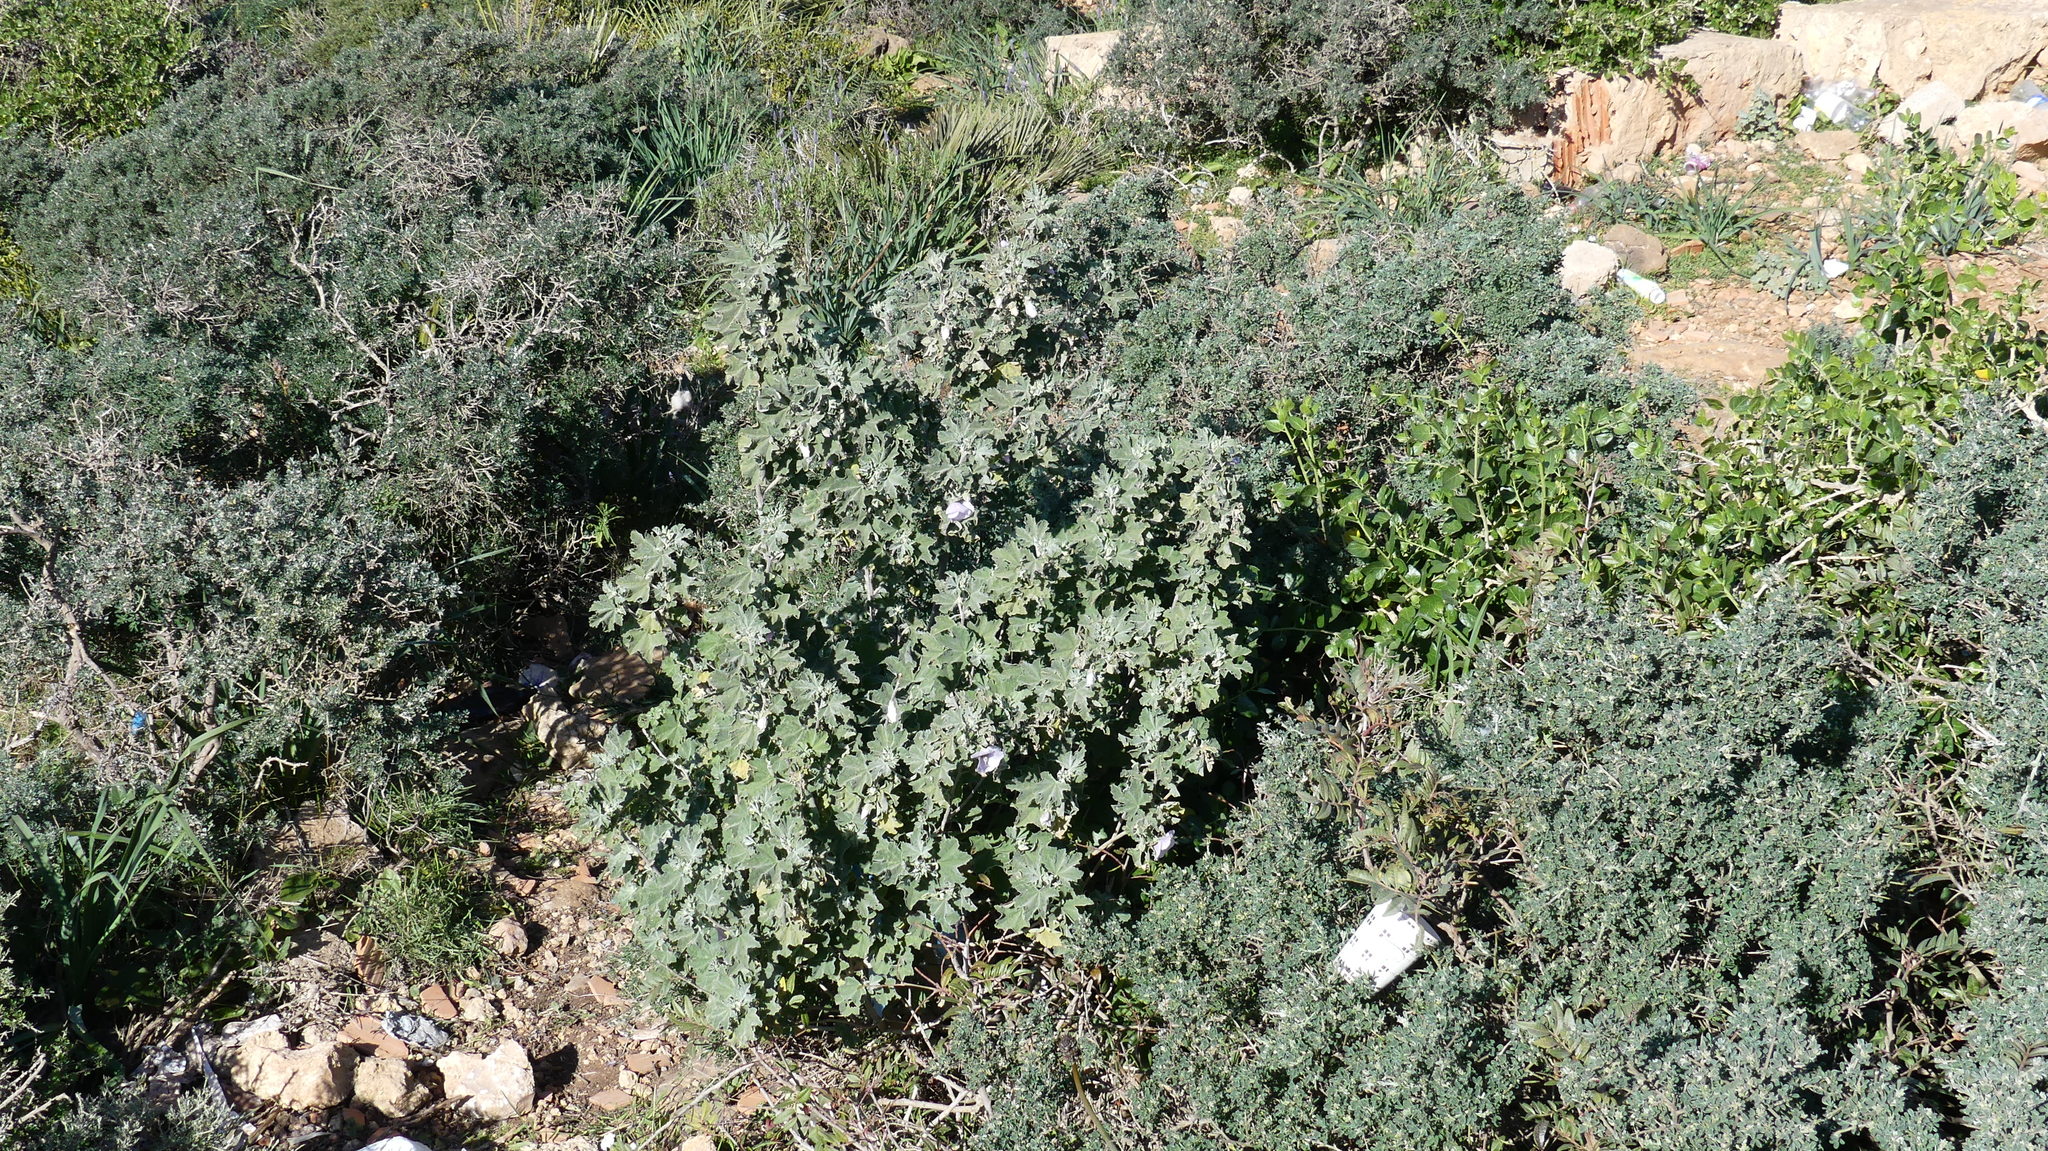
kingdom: Plantae
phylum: Tracheophyta
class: Magnoliopsida
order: Malvales
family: Malvaceae
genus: Malva
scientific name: Malva subovata
